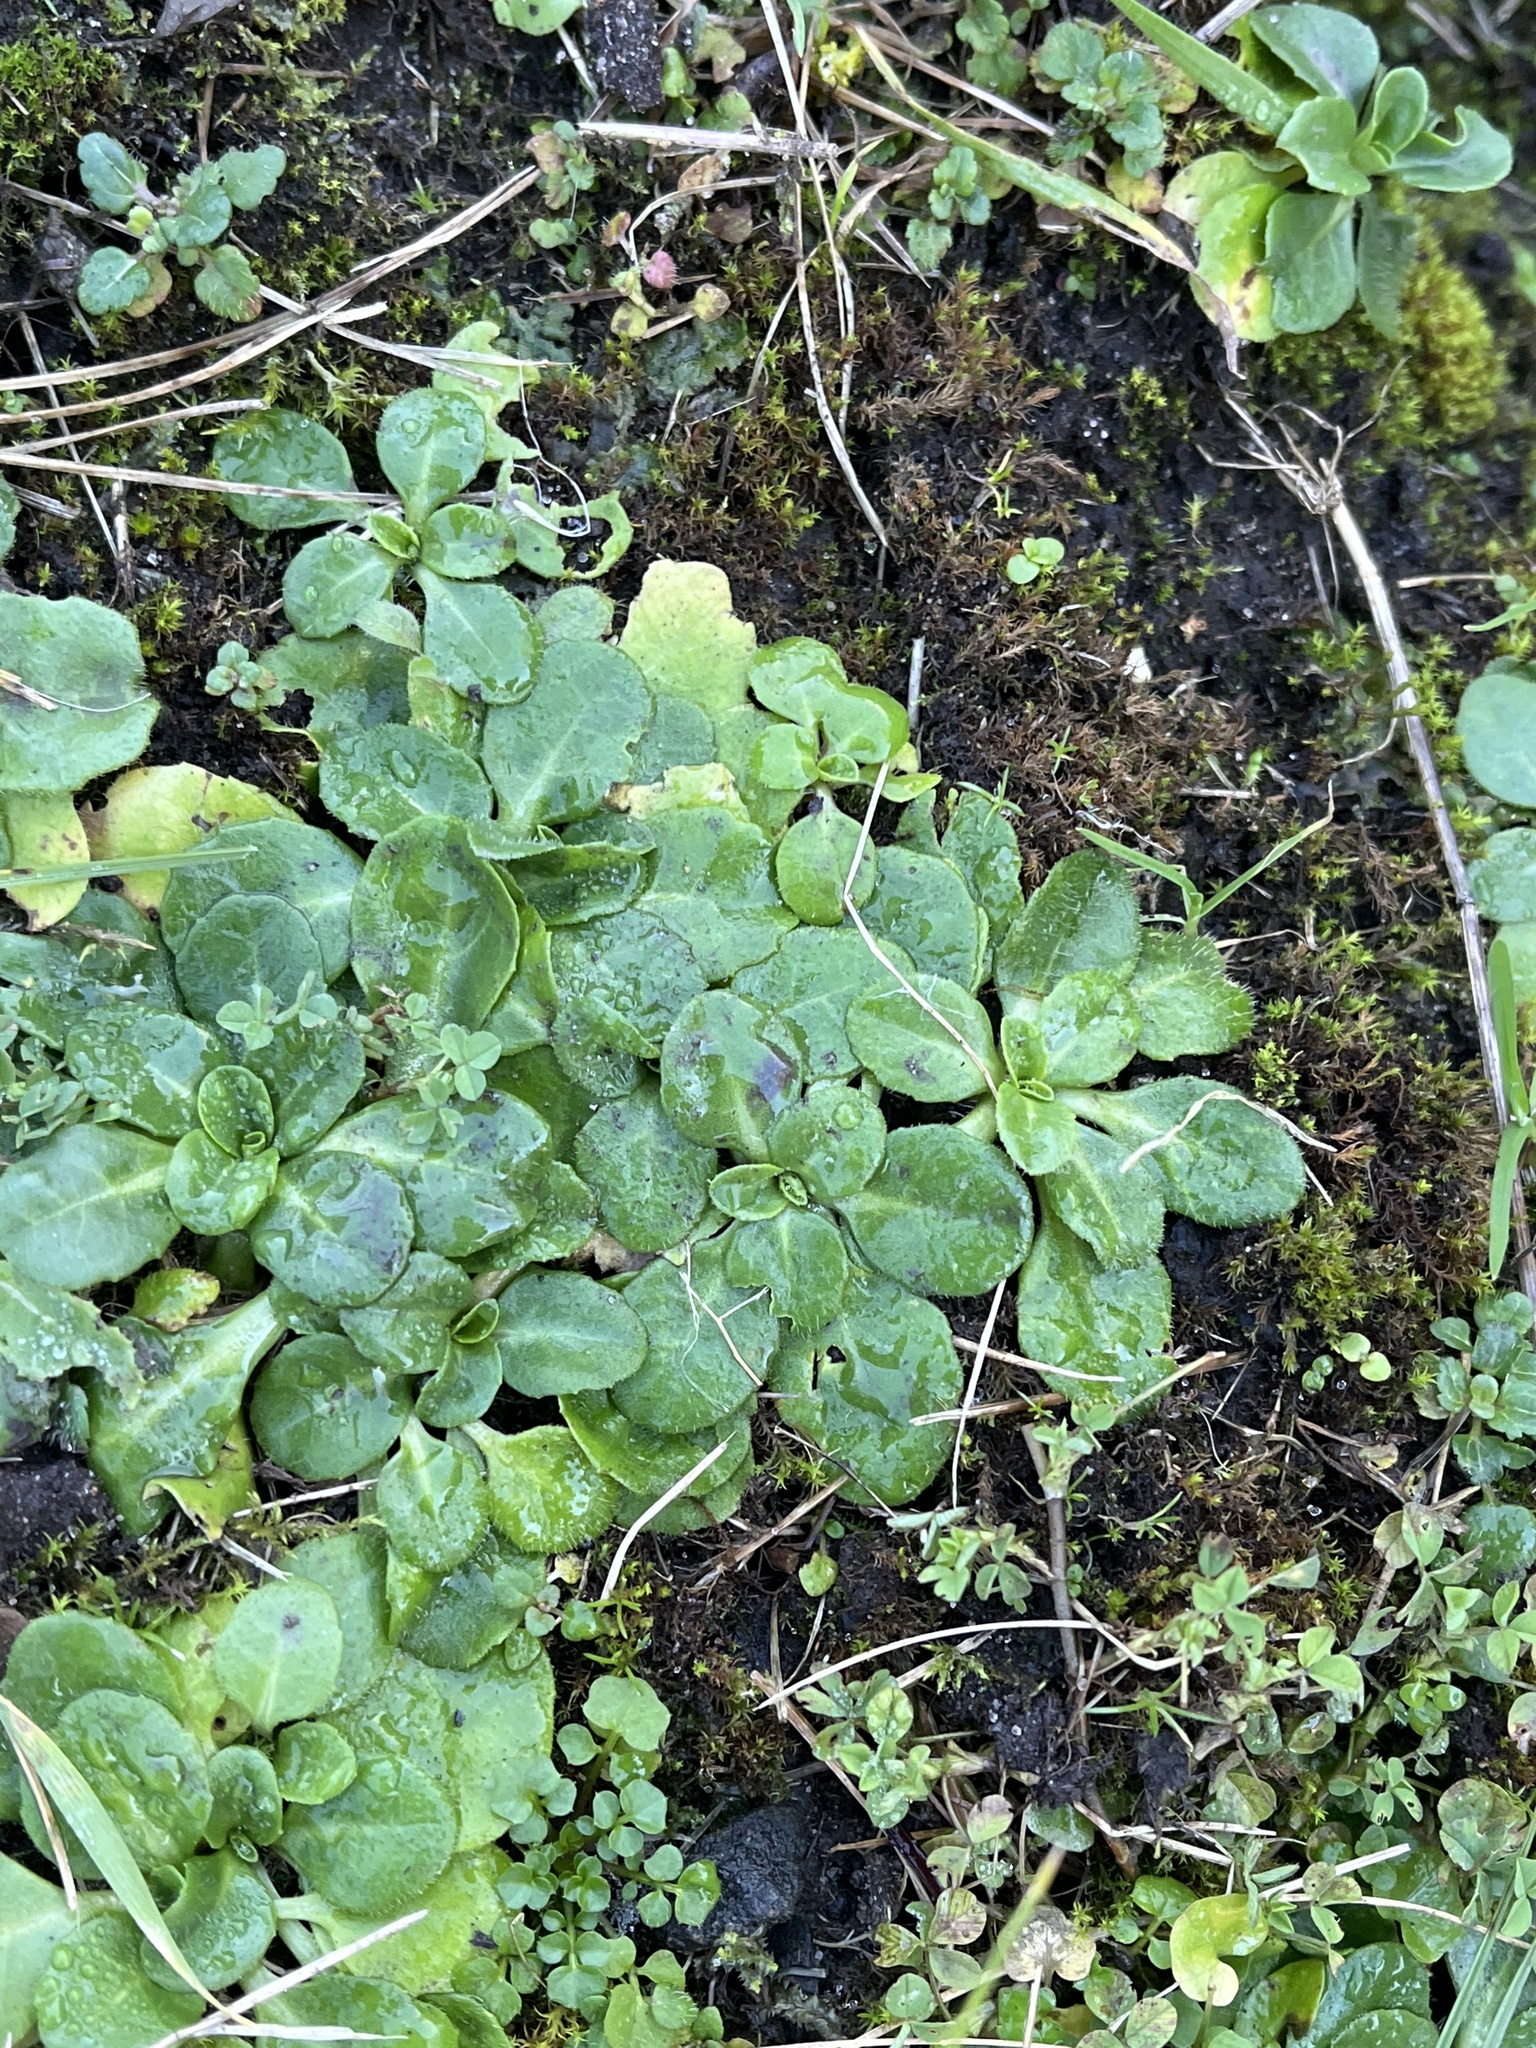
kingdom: Plantae
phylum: Tracheophyta
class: Magnoliopsida
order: Asterales
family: Asteraceae
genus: Bellis
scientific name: Bellis perennis
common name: Lawndaisy
